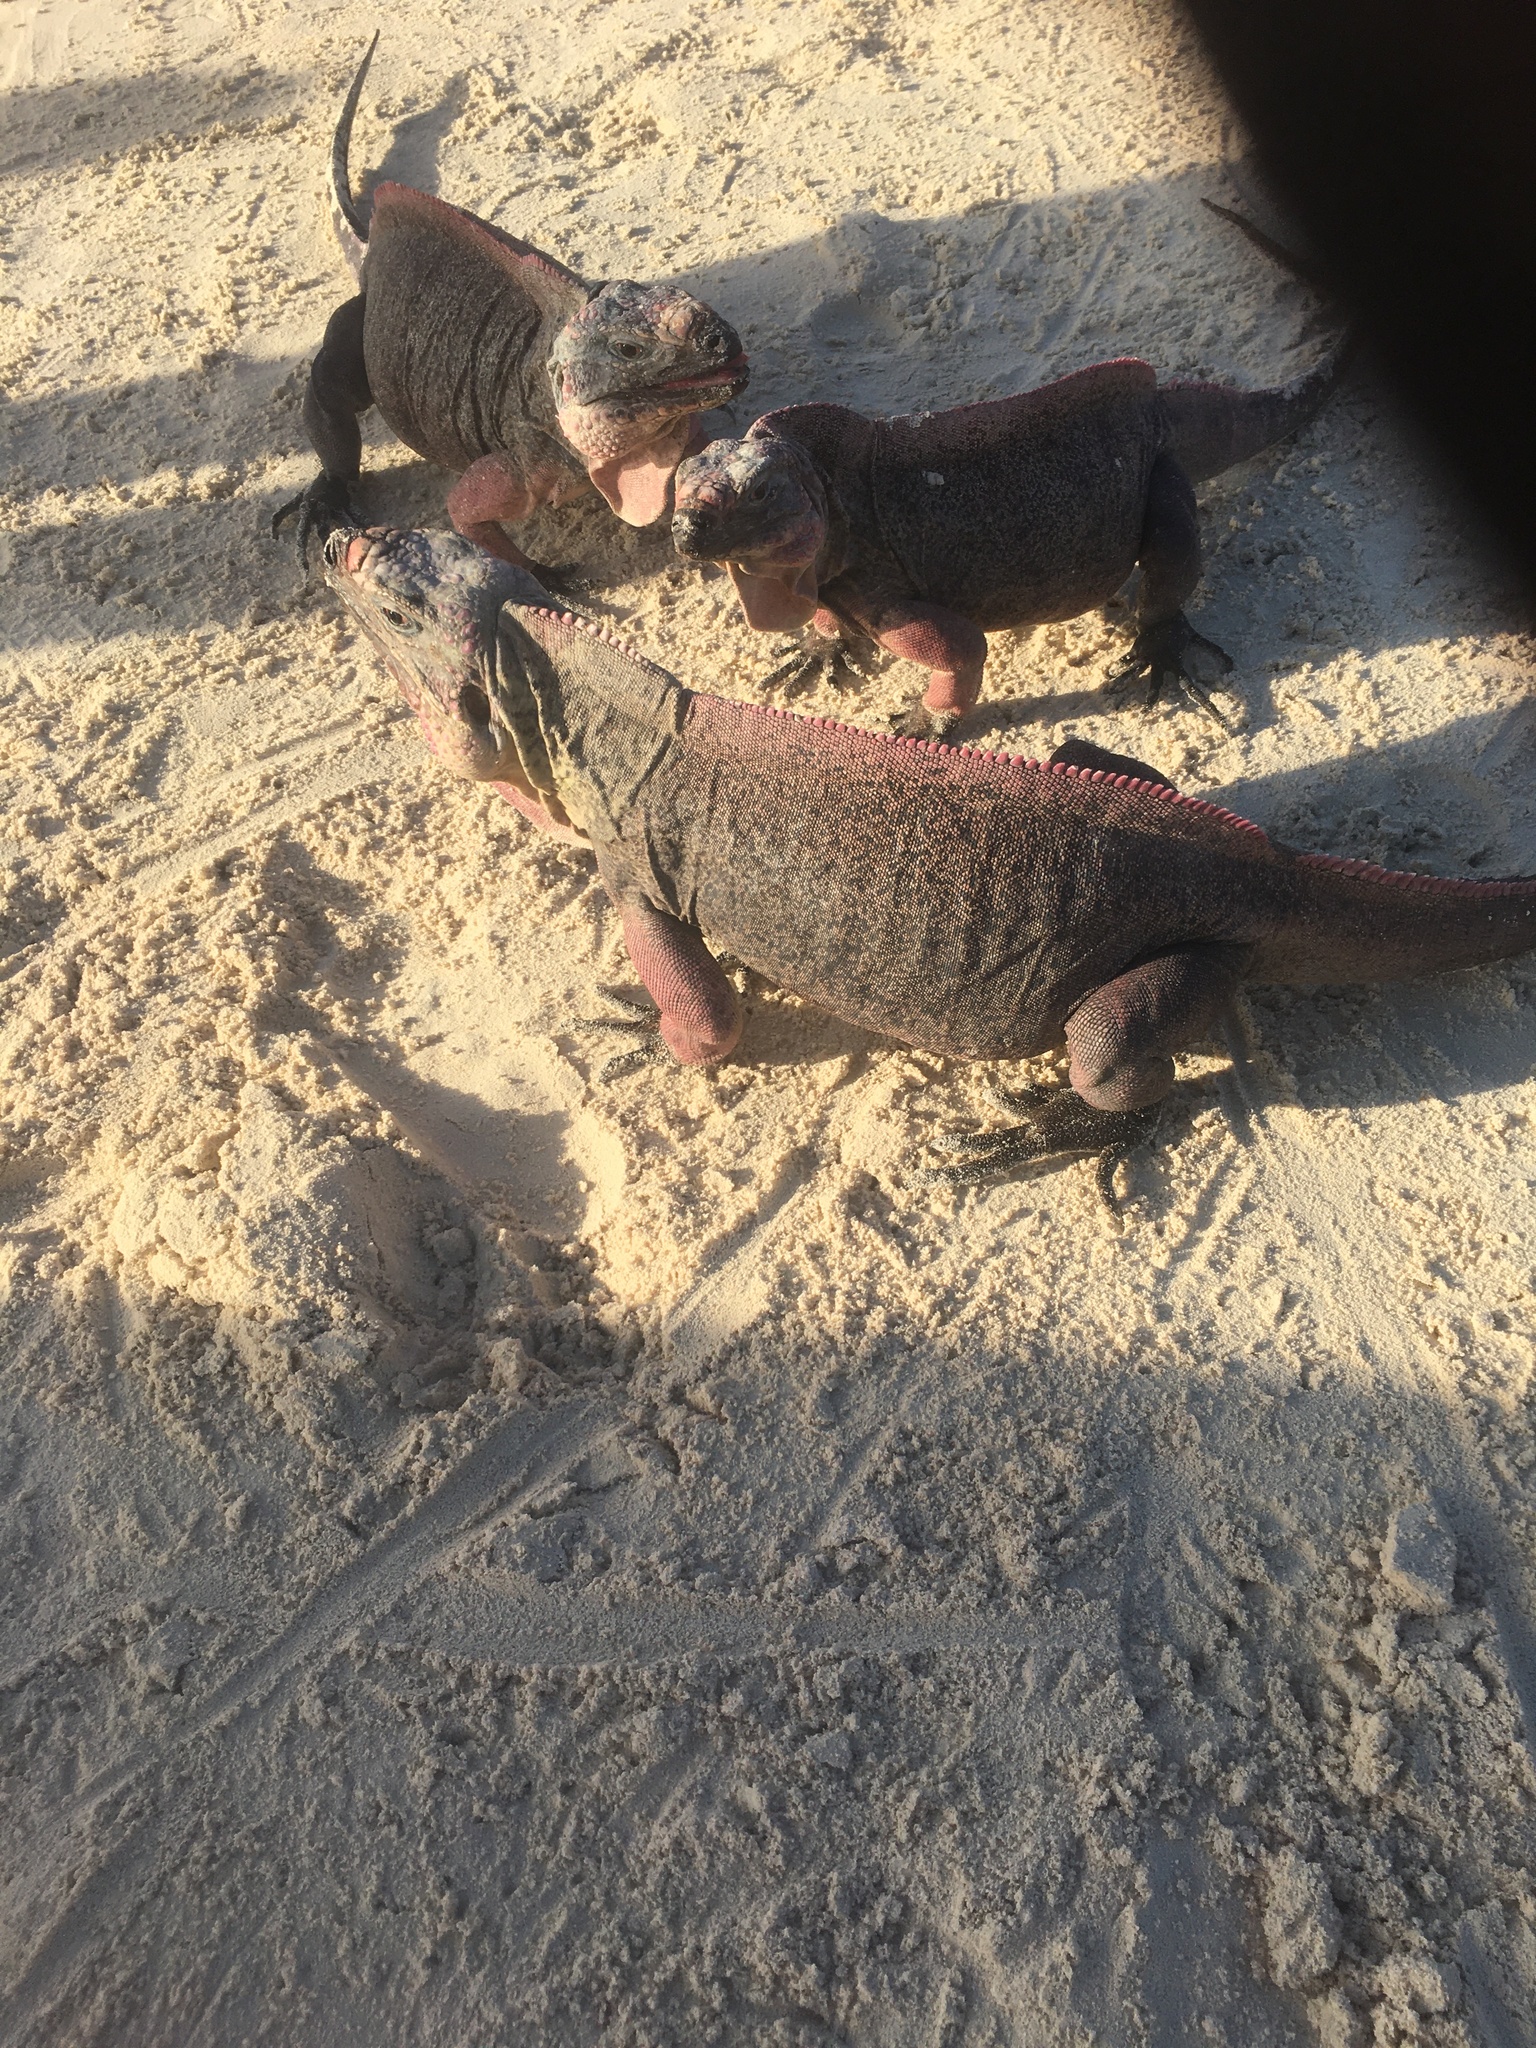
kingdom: Animalia
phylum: Chordata
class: Squamata
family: Iguanidae
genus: Cyclura
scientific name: Cyclura cychlura
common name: Northern bahamian rock iguana
